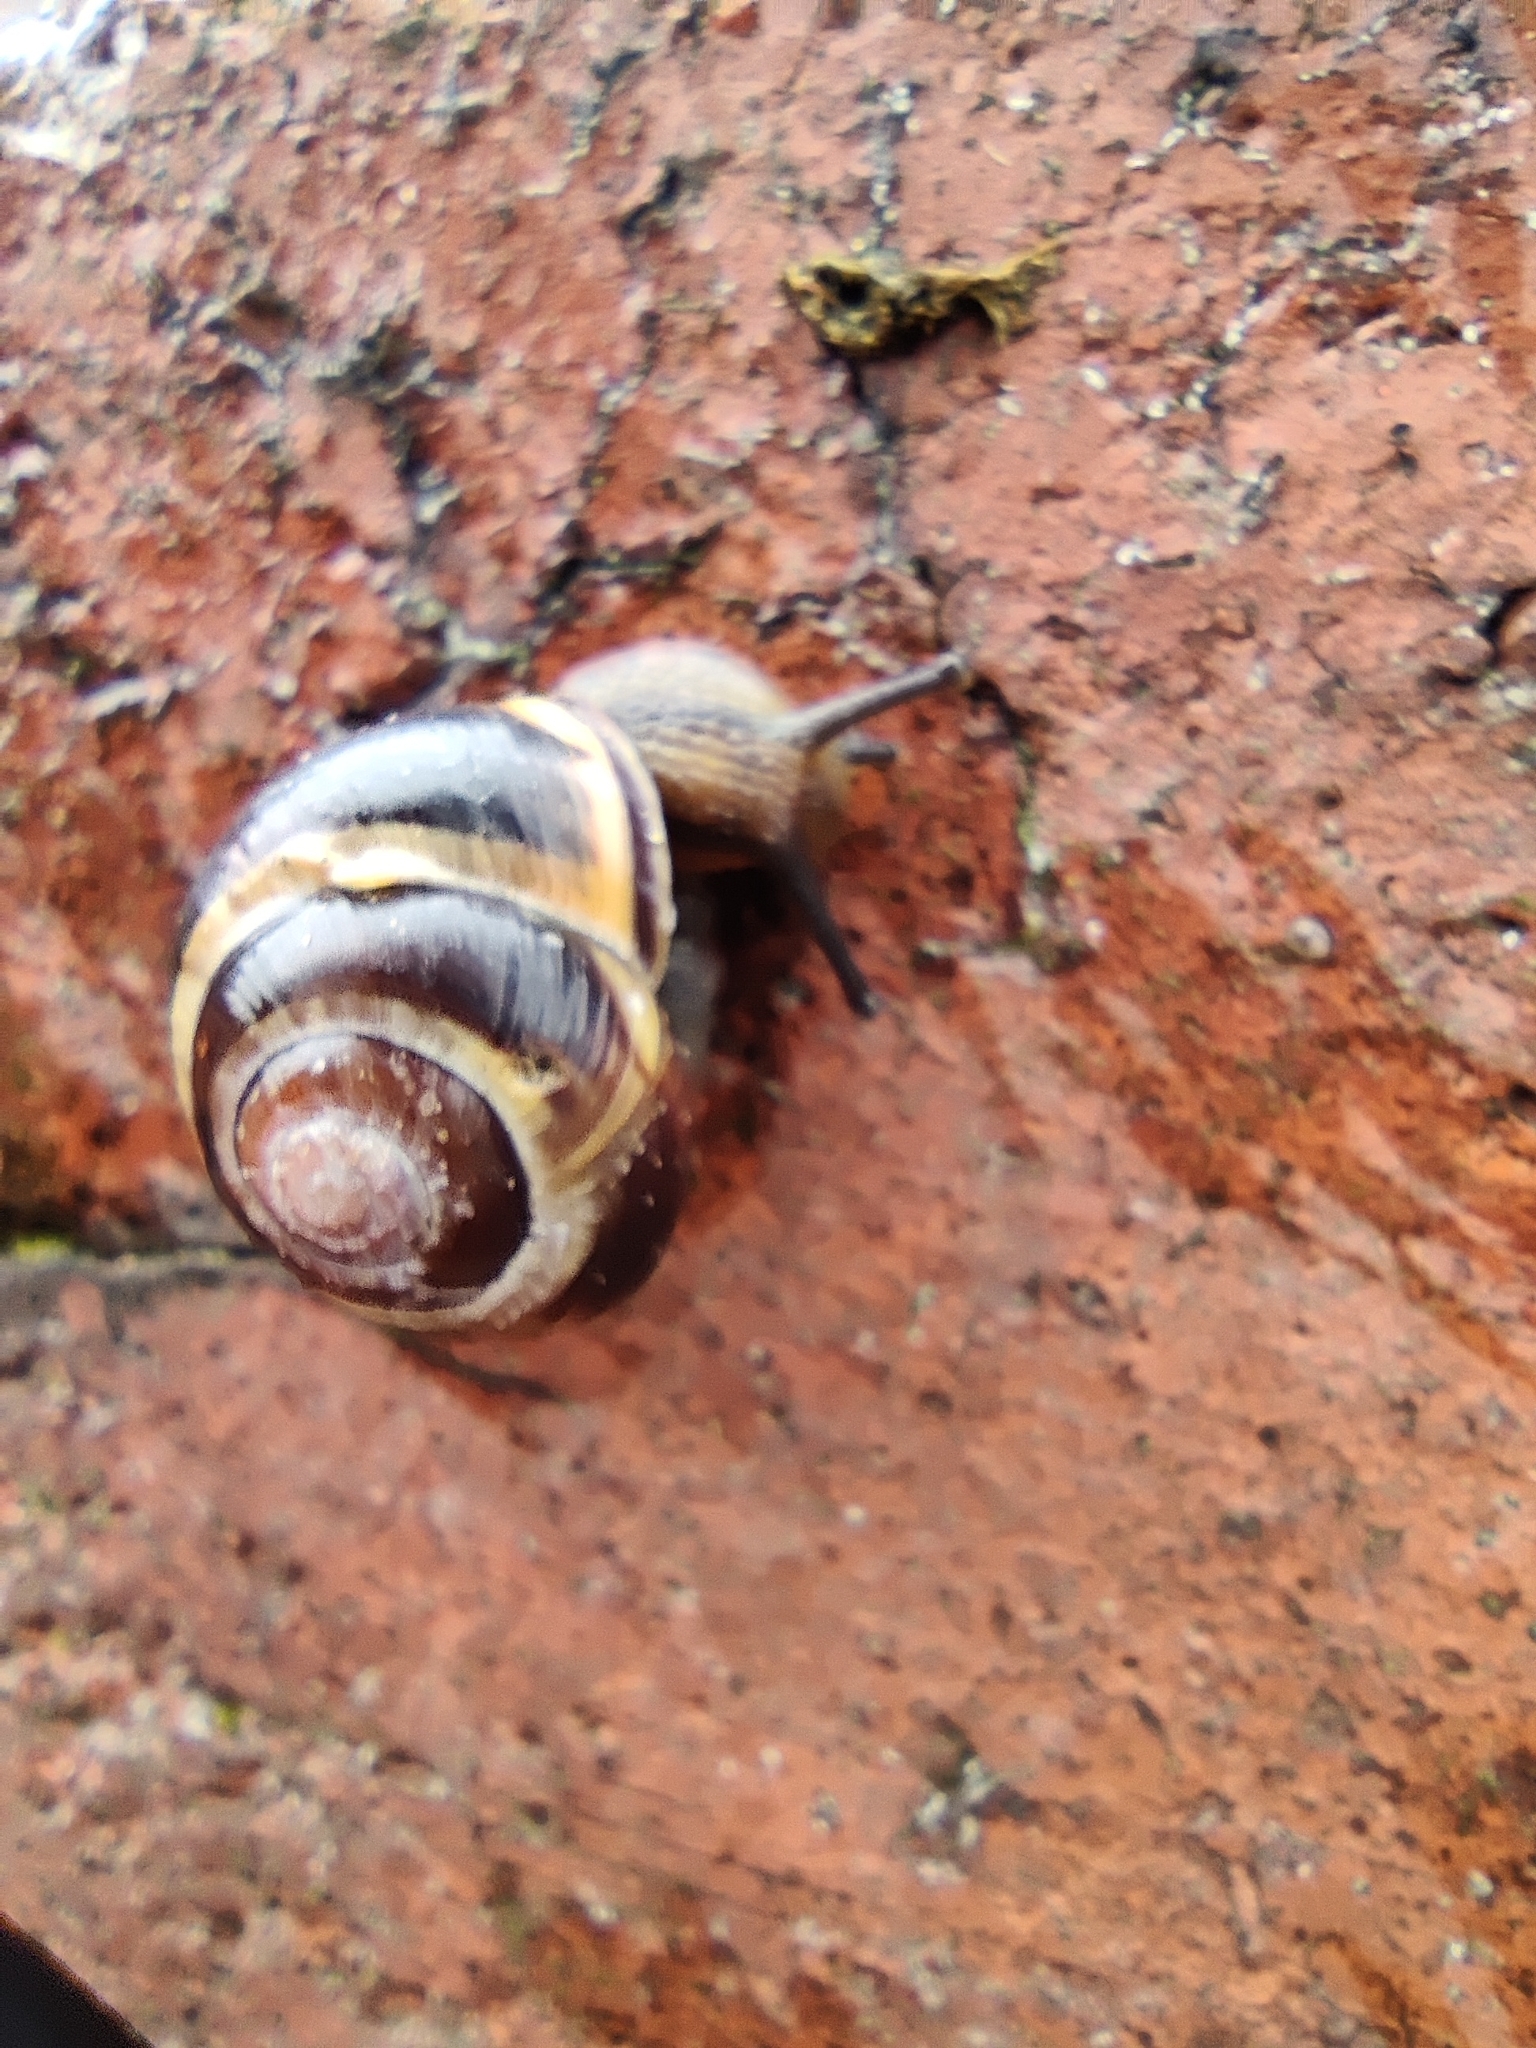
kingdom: Animalia
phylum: Mollusca
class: Gastropoda
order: Stylommatophora
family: Helicidae
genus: Cepaea
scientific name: Cepaea nemoralis
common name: Grovesnail
